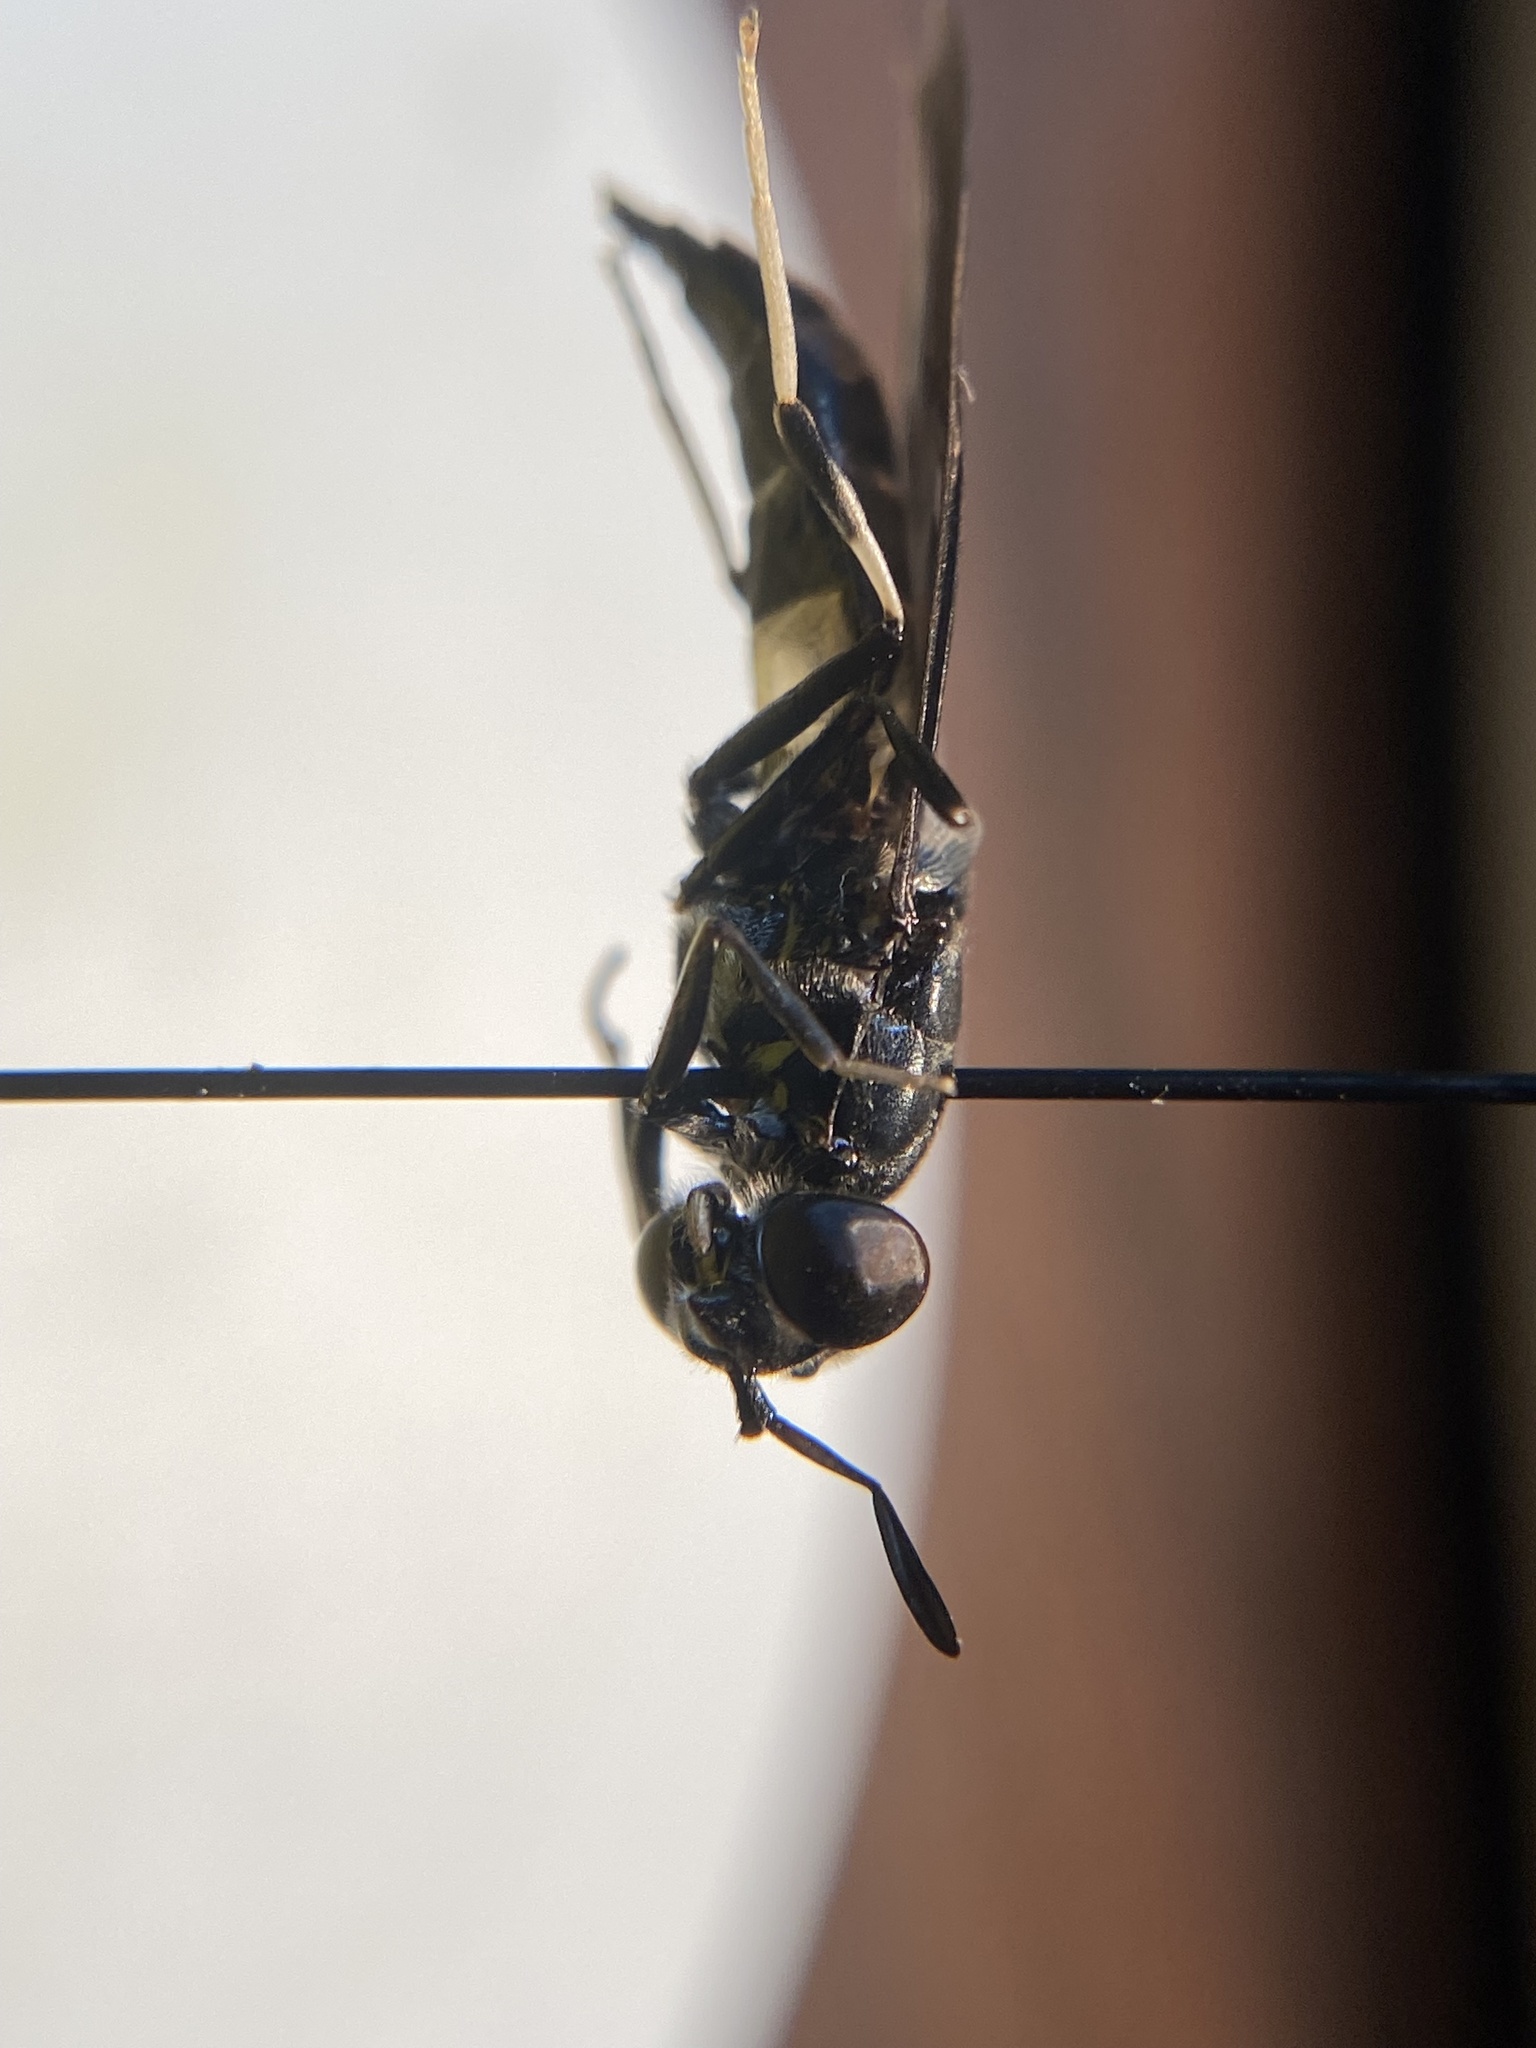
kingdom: Animalia
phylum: Arthropoda
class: Insecta
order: Diptera
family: Stratiomyidae
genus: Hermetia
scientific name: Hermetia illucens
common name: Black soldier fly
